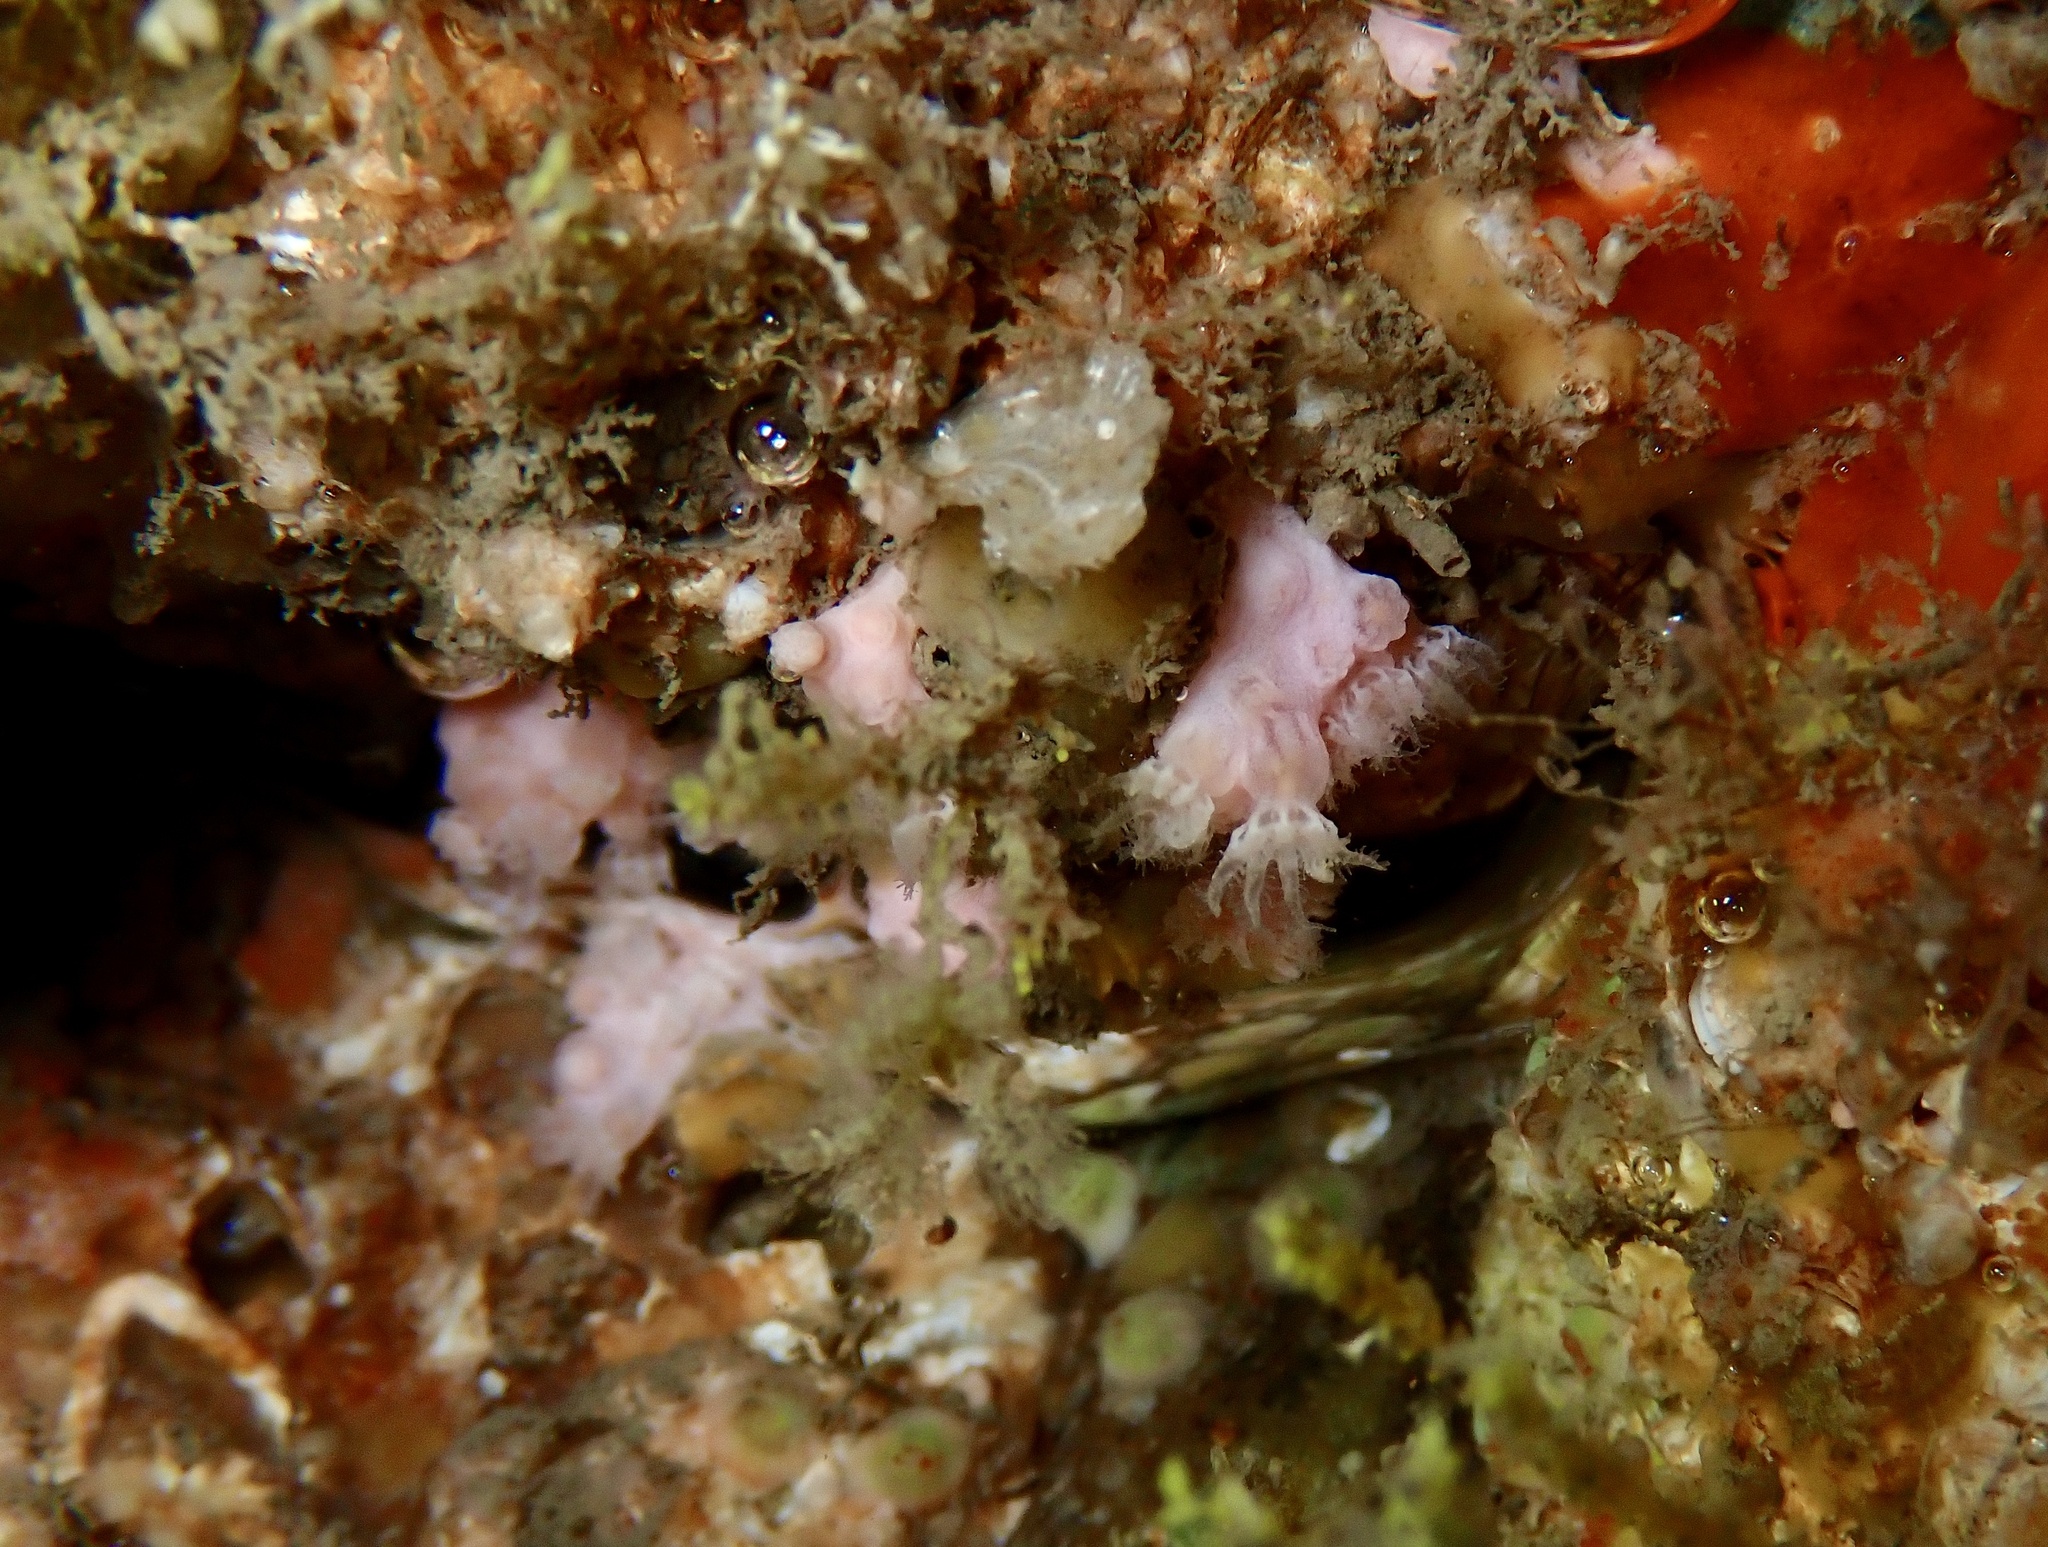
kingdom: Animalia
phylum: Cnidaria
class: Anthozoa
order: Malacalcyonacea
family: Alcyoniidae
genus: Alcyonium
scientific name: Alcyonium hibernicum
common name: Pink sea fingers
